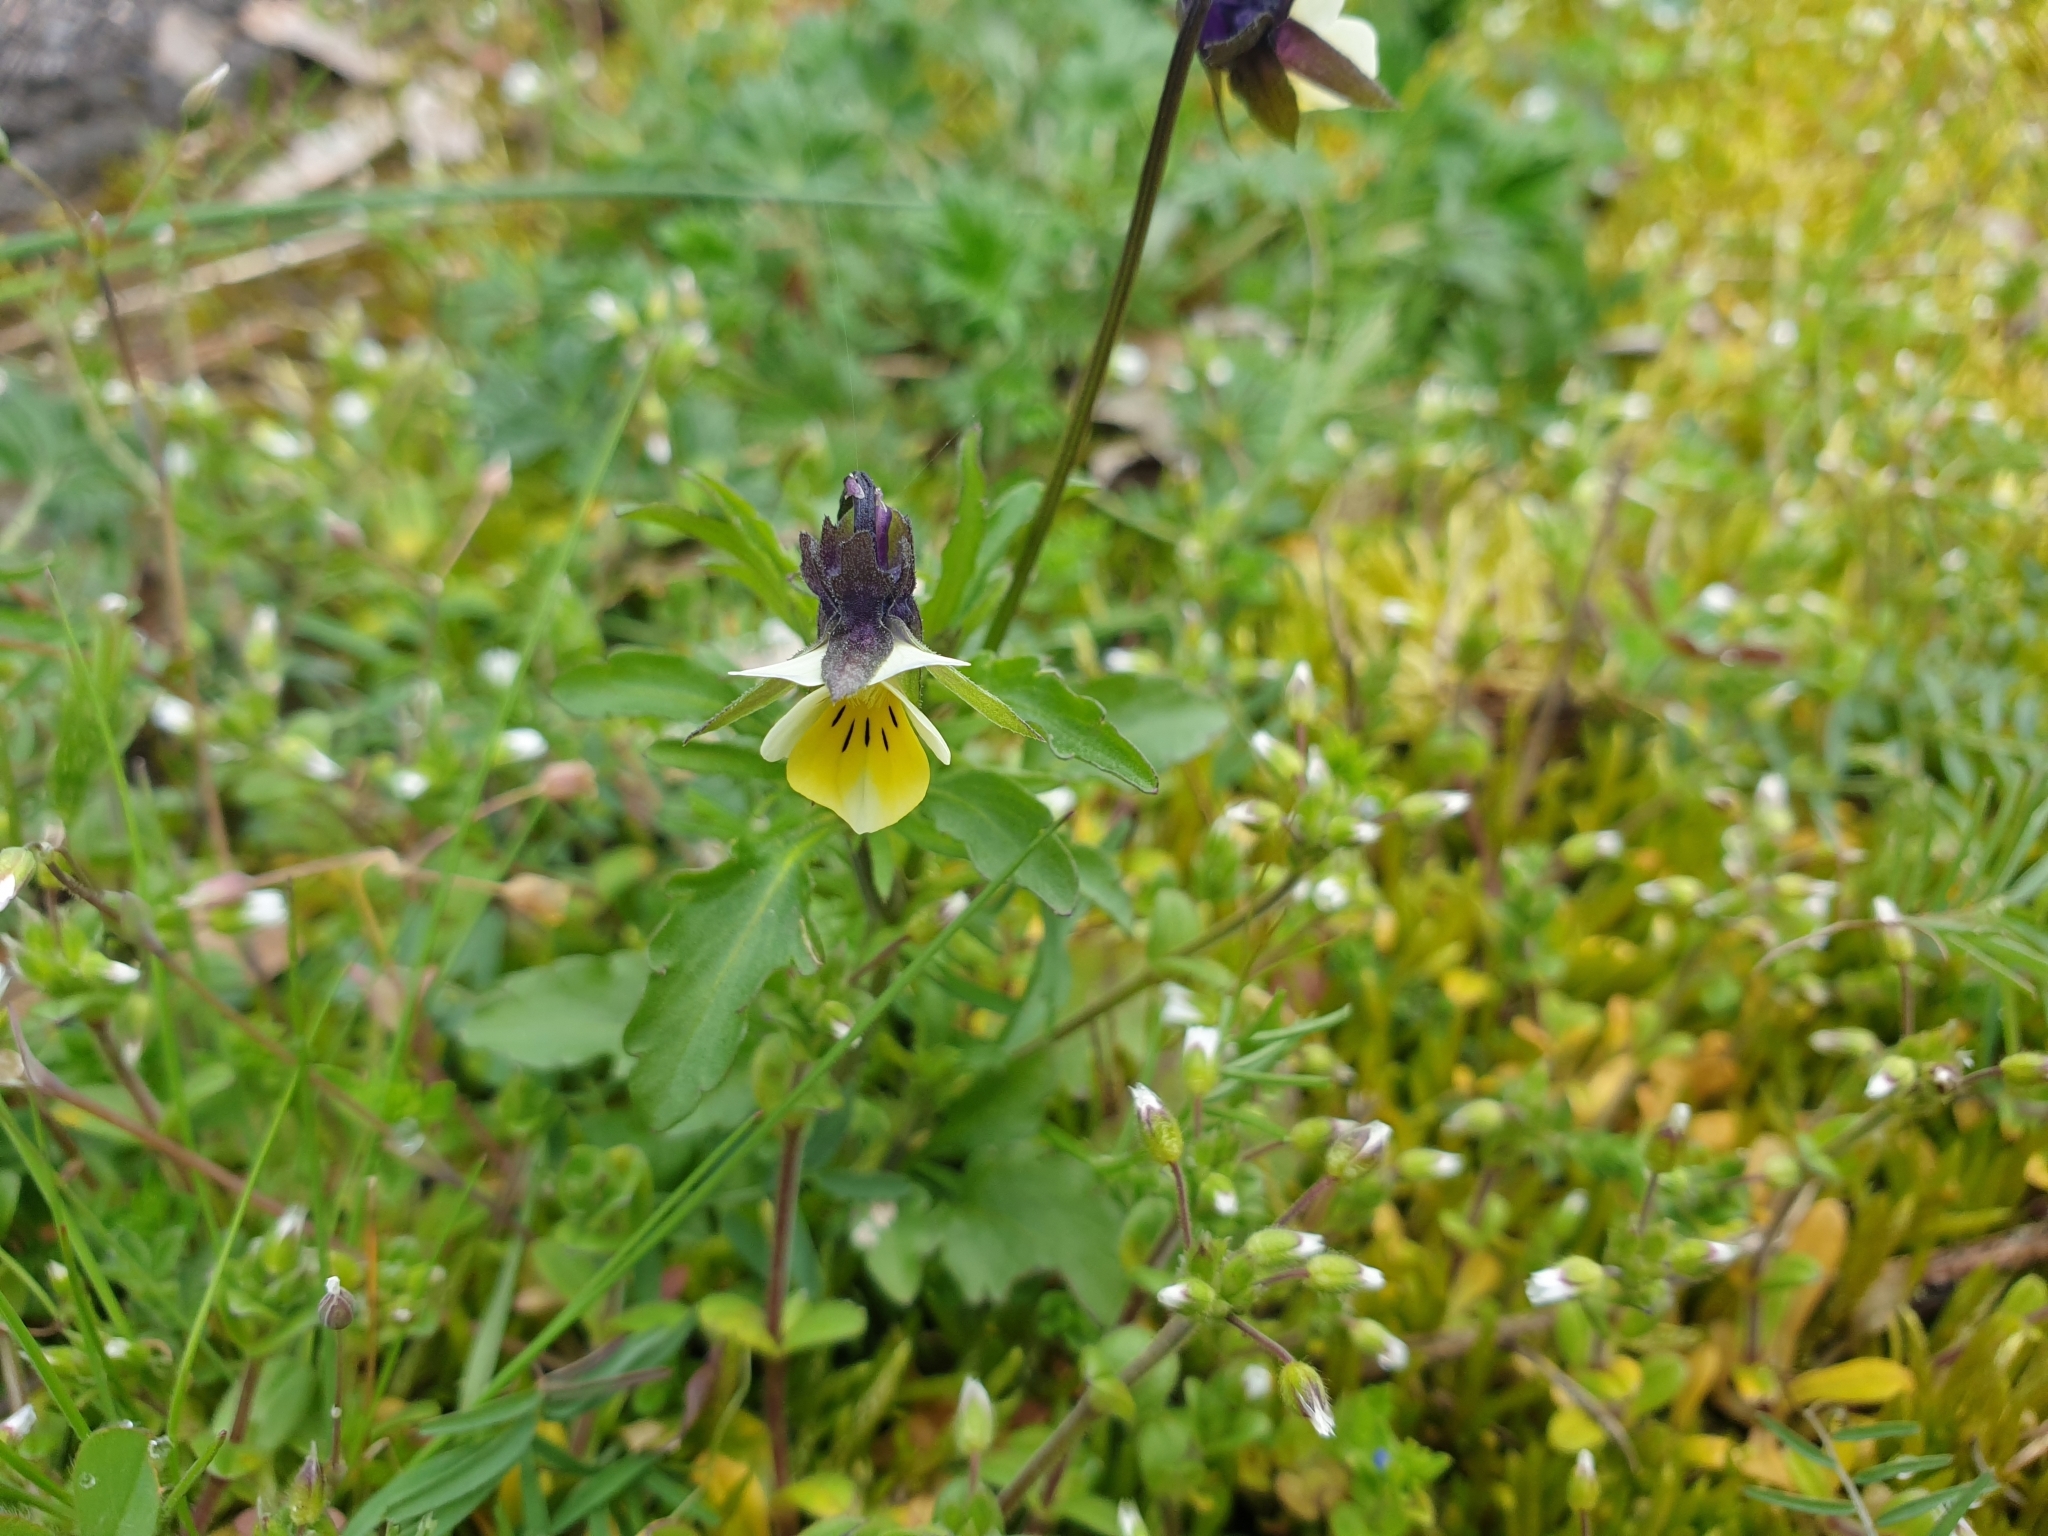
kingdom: Plantae
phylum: Tracheophyta
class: Magnoliopsida
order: Malpighiales
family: Violaceae
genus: Viola
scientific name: Viola arvensis
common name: Field pansy
